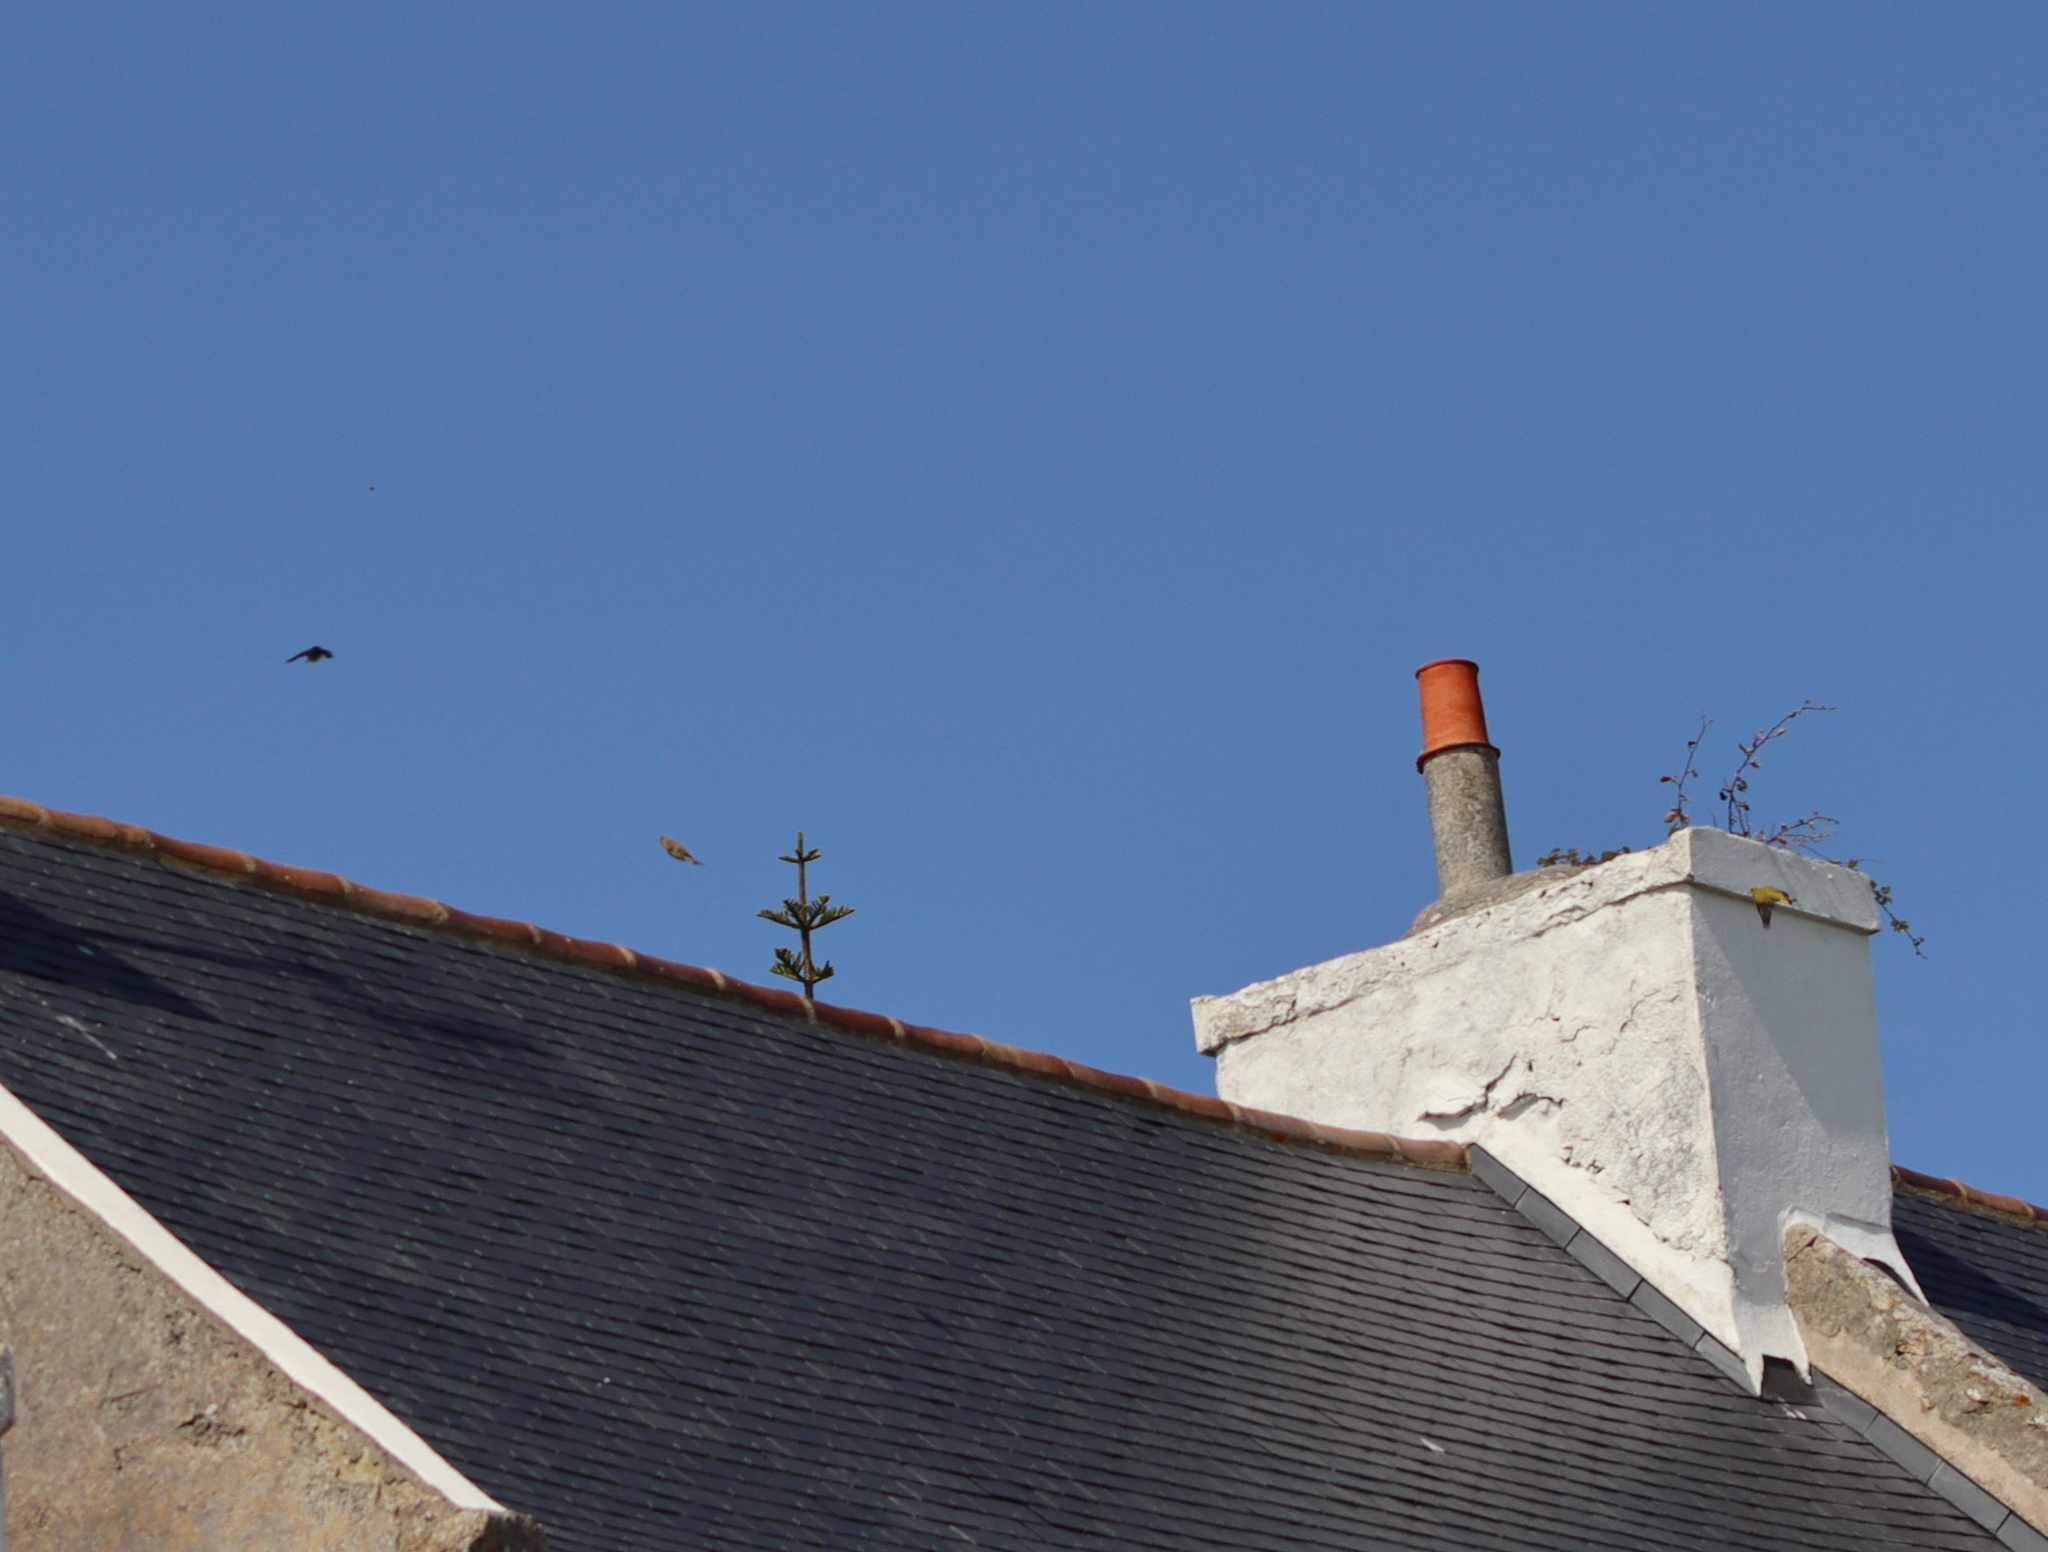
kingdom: Plantae
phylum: Tracheophyta
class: Liliopsida
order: Poales
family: Poaceae
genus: Chloris
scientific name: Chloris chloris
